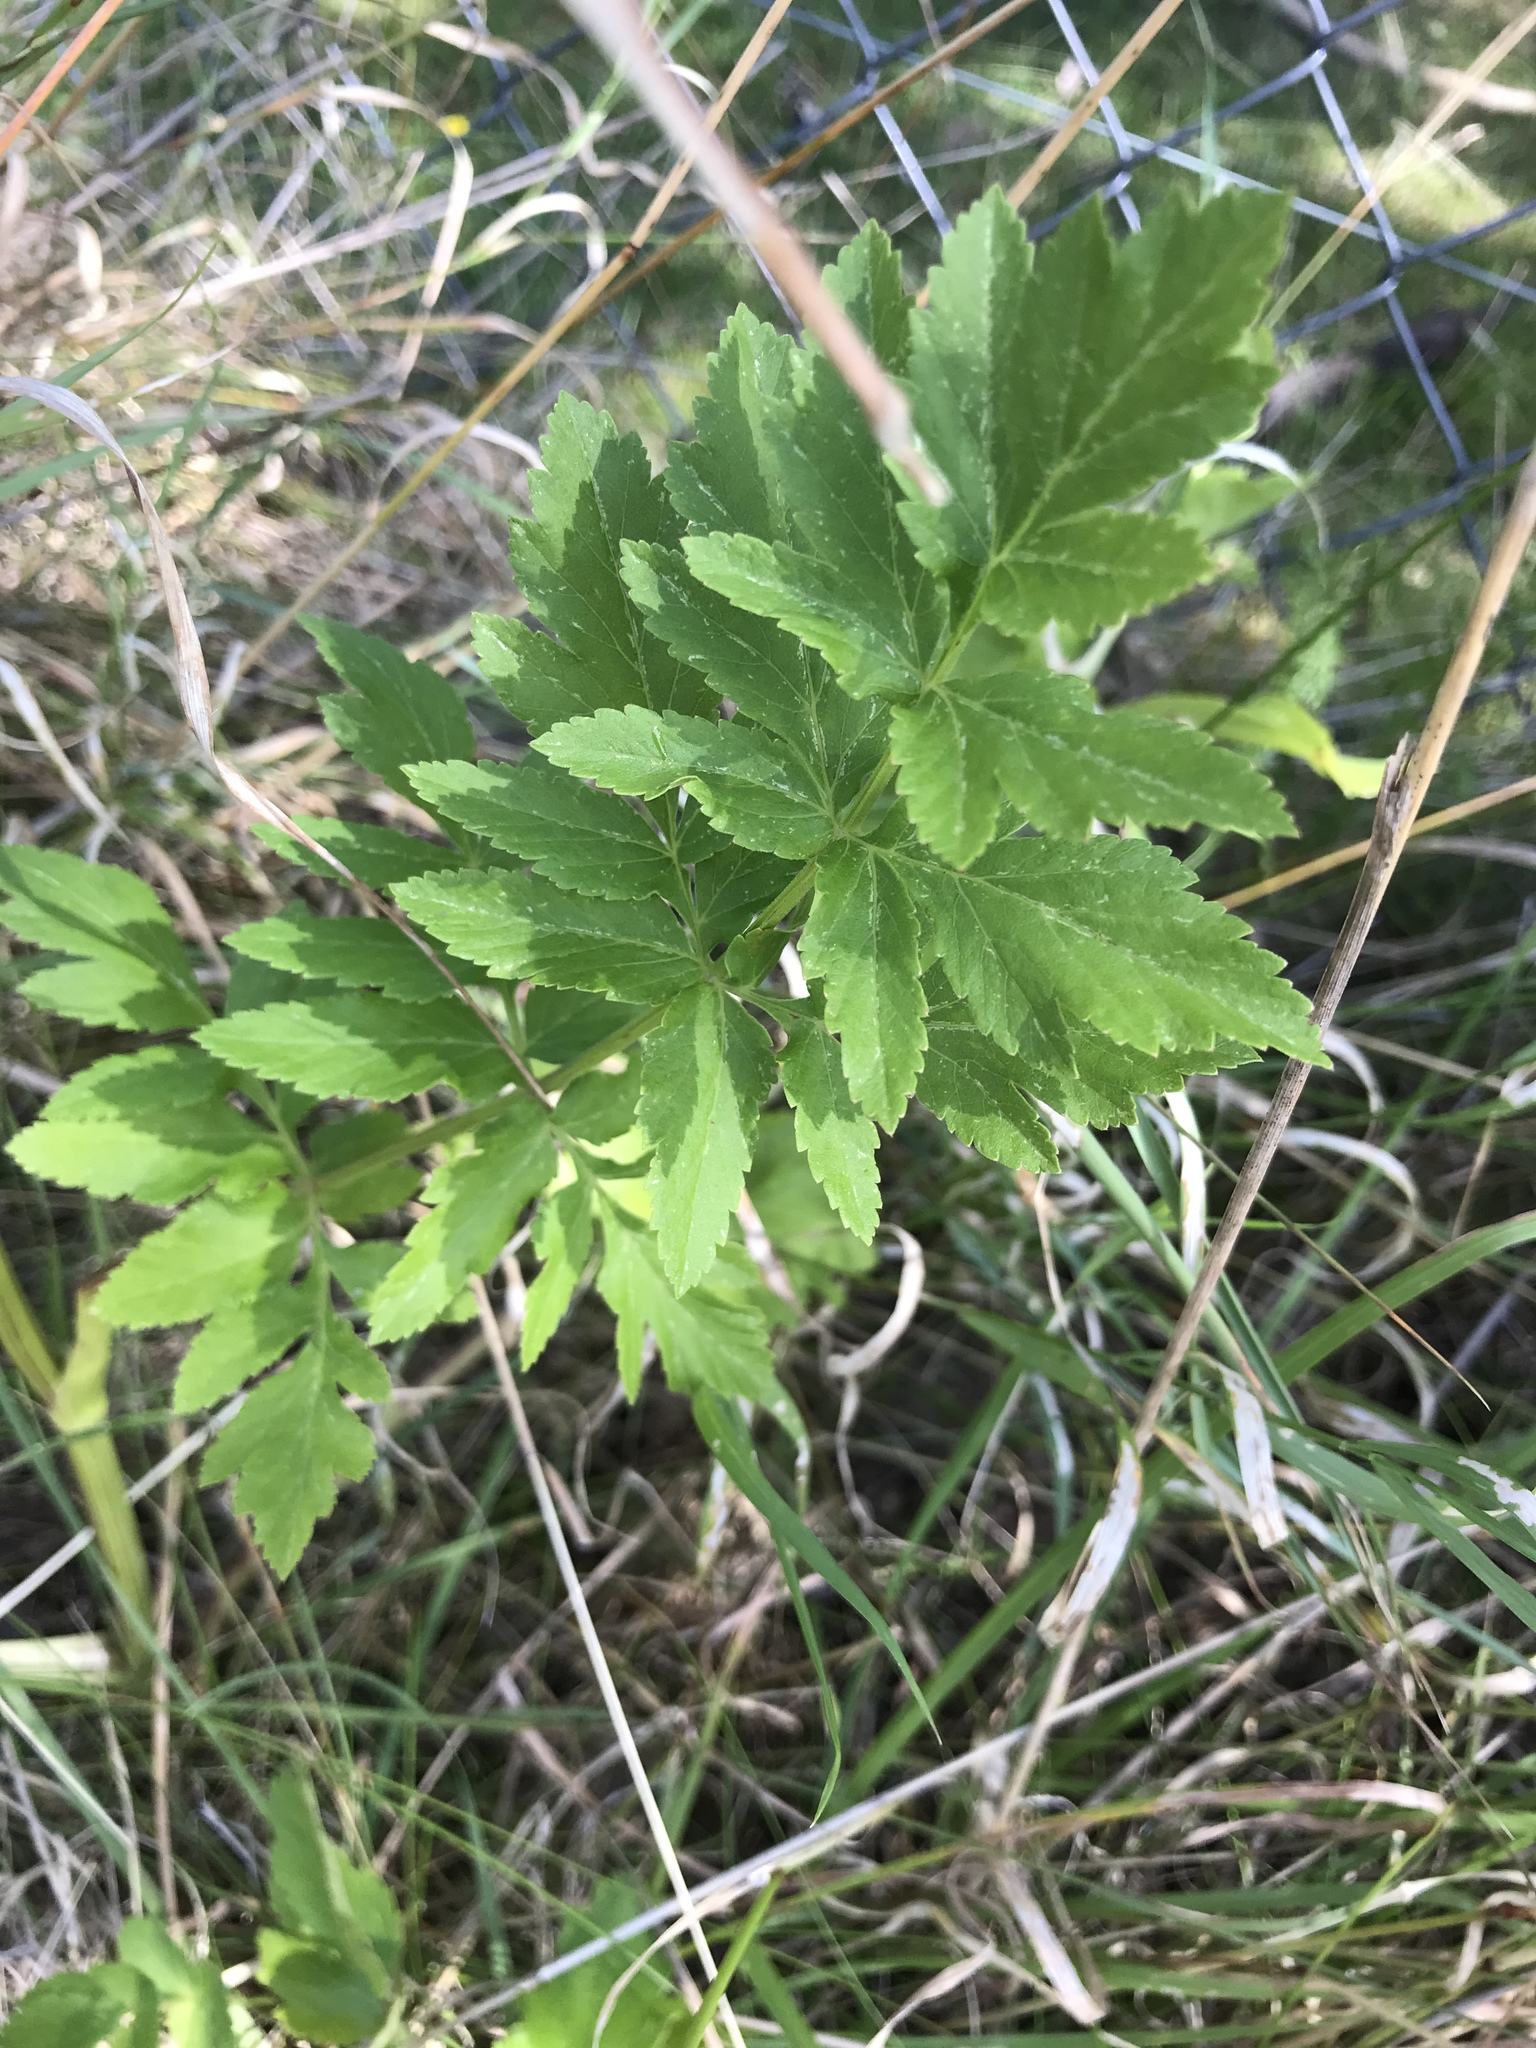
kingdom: Plantae
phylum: Tracheophyta
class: Magnoliopsida
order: Apiales
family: Apiaceae
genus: Pastinaca
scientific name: Pastinaca sativa
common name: Wild parsnip
